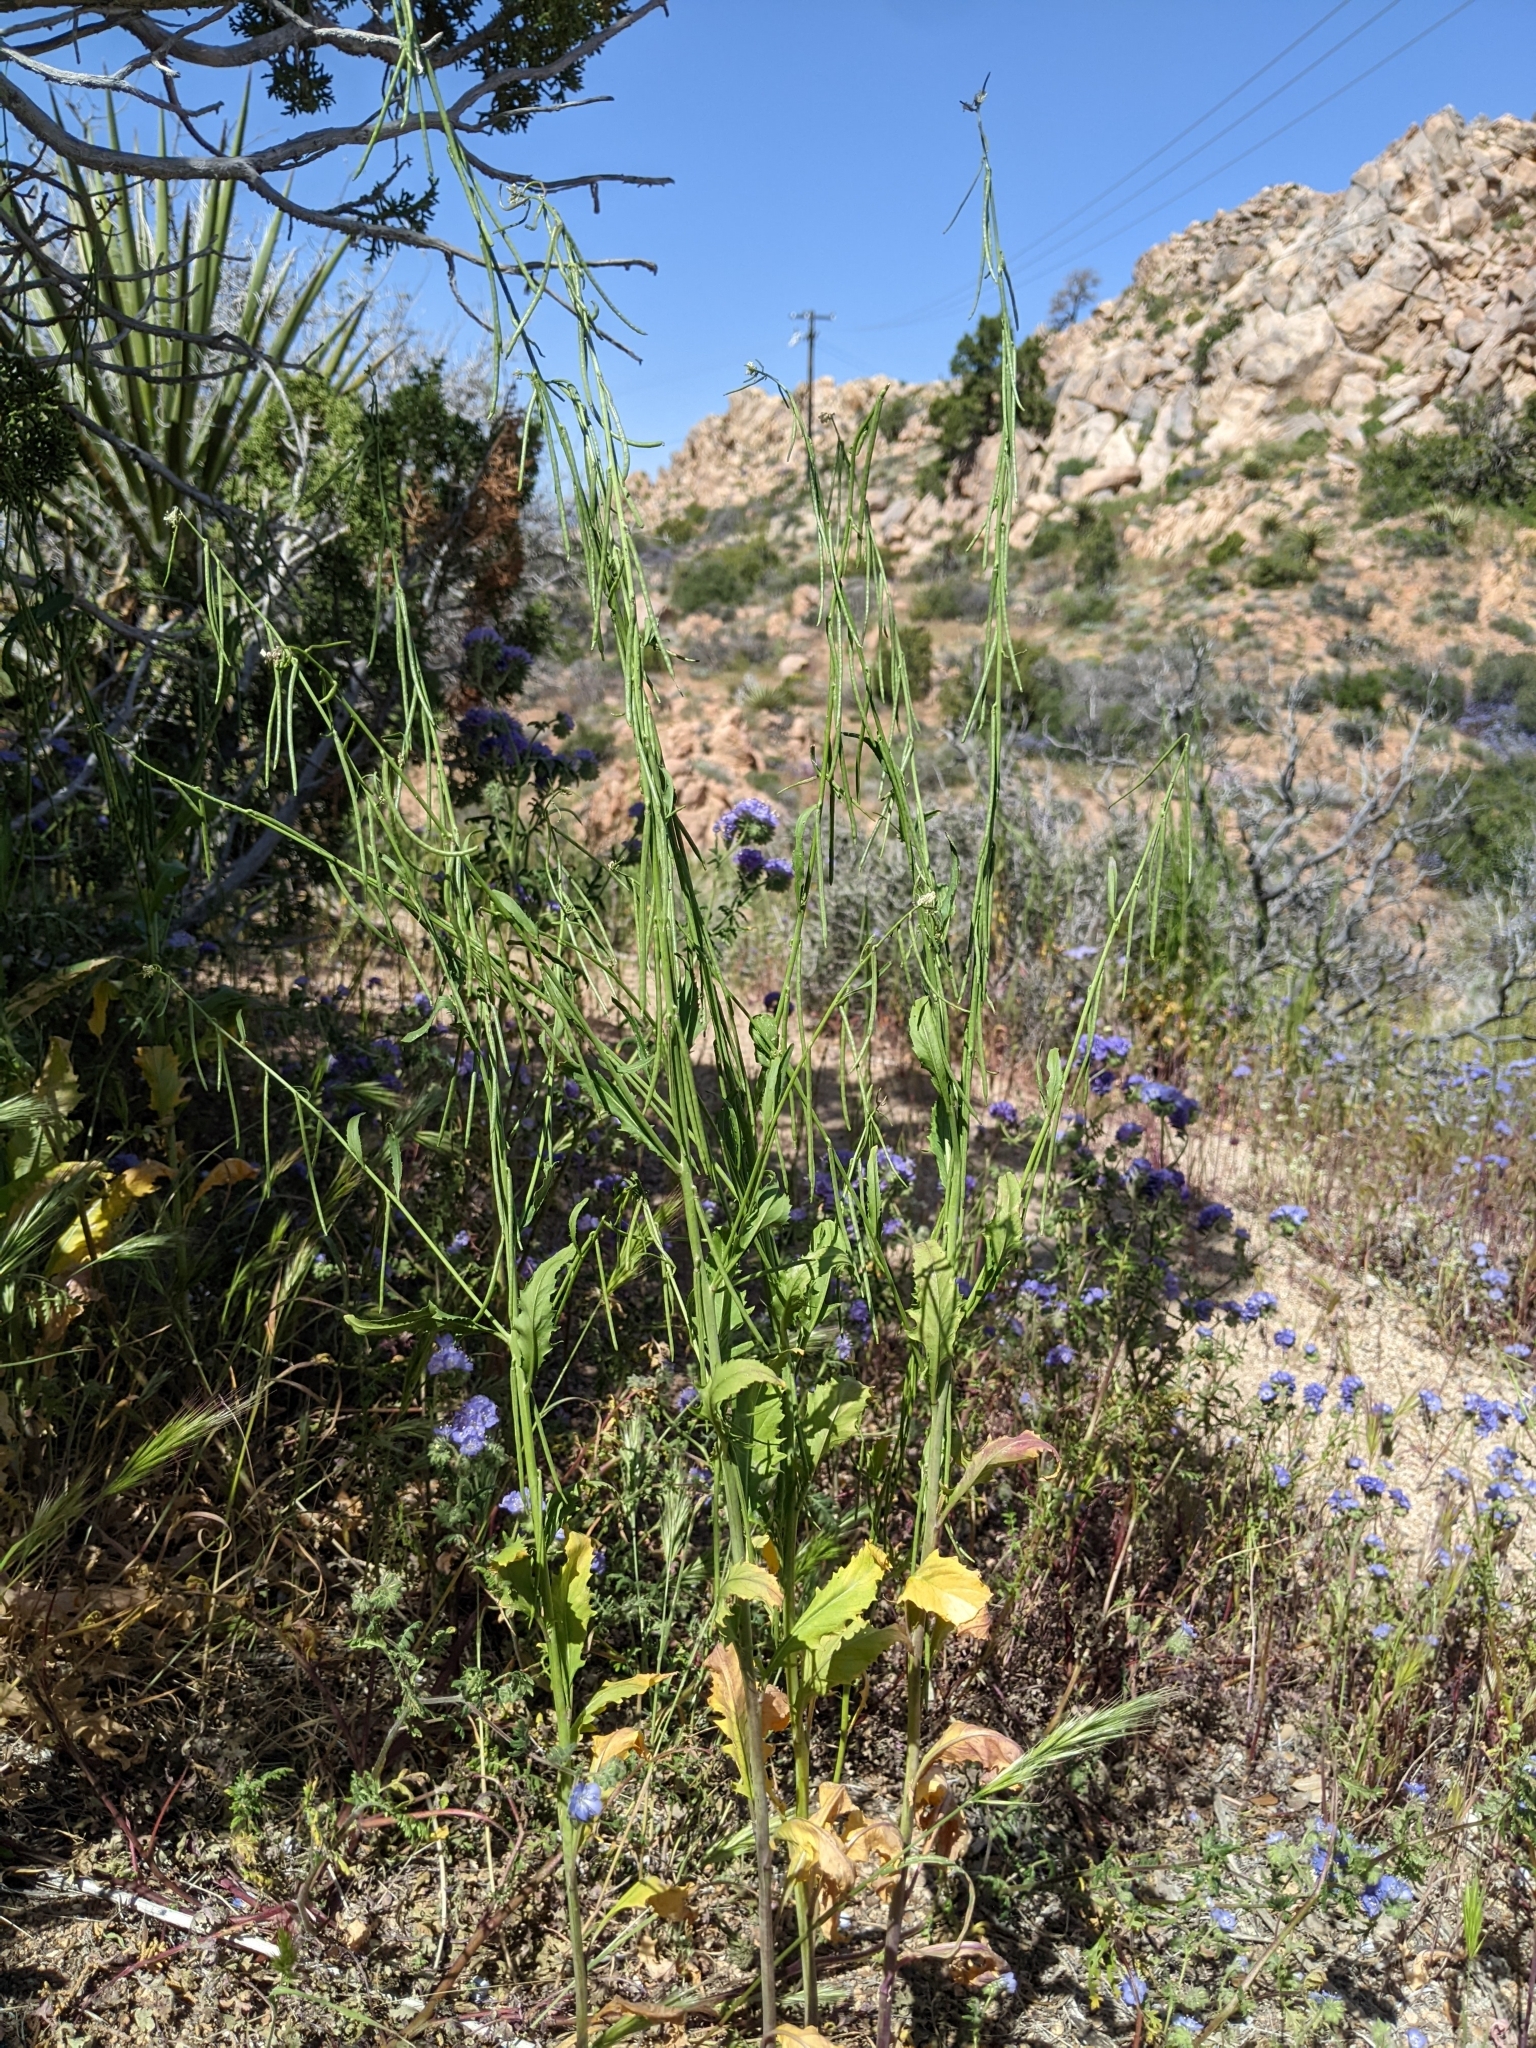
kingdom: Plantae
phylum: Tracheophyta
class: Magnoliopsida
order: Brassicales
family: Brassicaceae
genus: Streptanthus
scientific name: Streptanthus lasiophyllus
